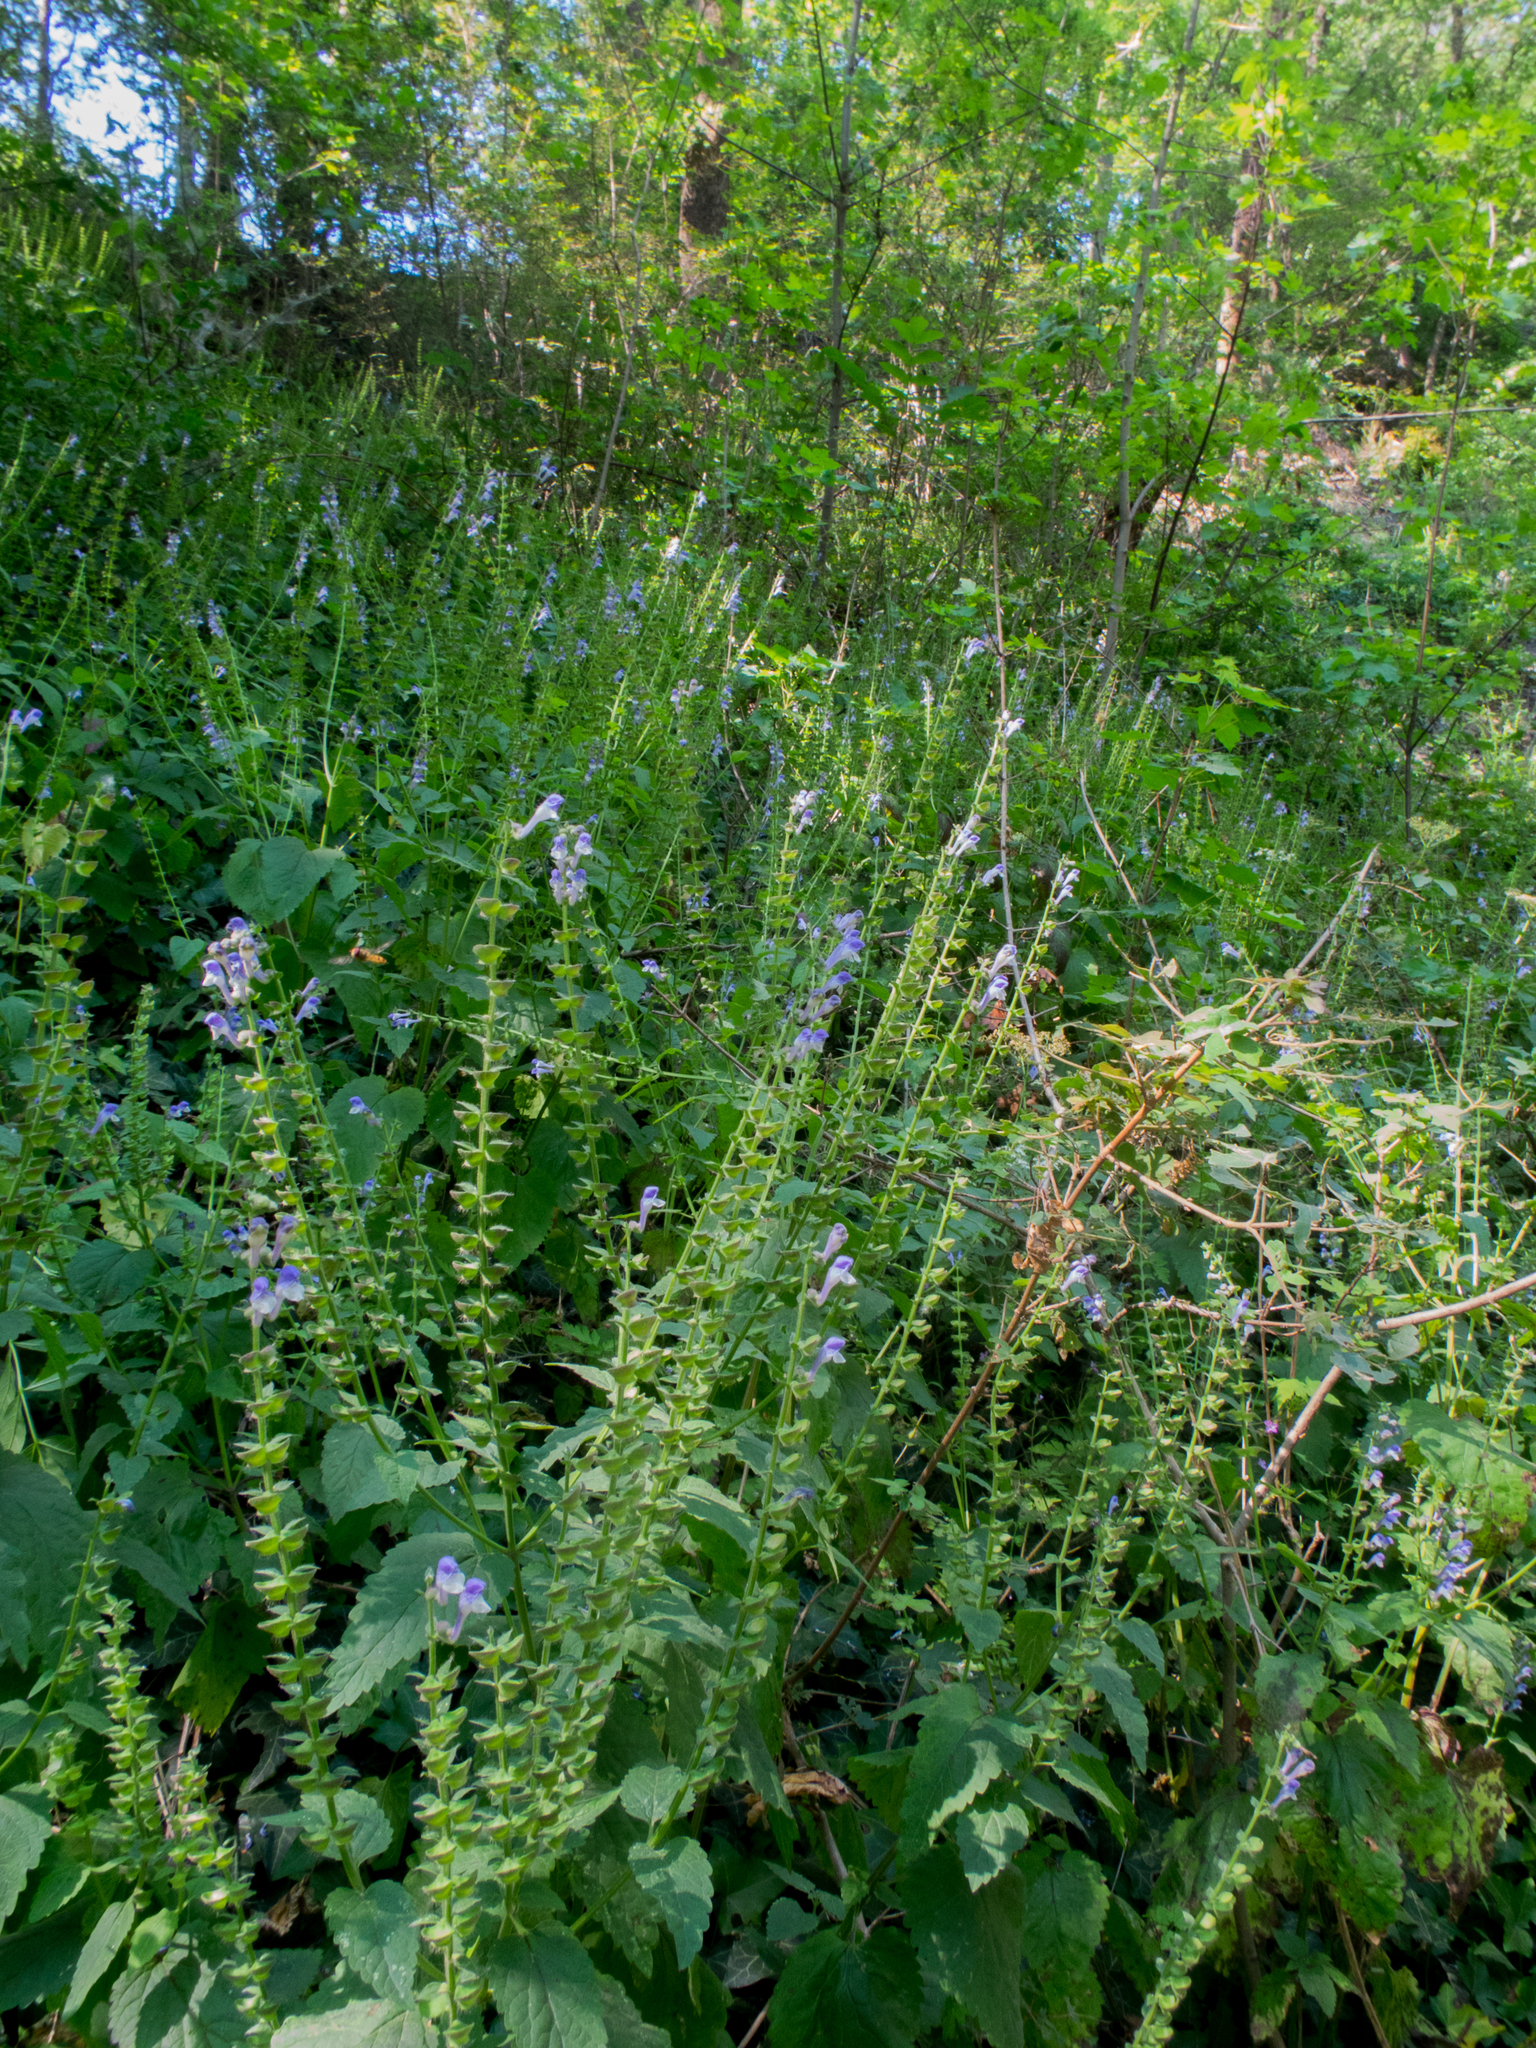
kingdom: Plantae
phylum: Tracheophyta
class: Magnoliopsida
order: Lamiales
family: Lamiaceae
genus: Scutellaria
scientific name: Scutellaria altissima
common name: Somerset skullcap
